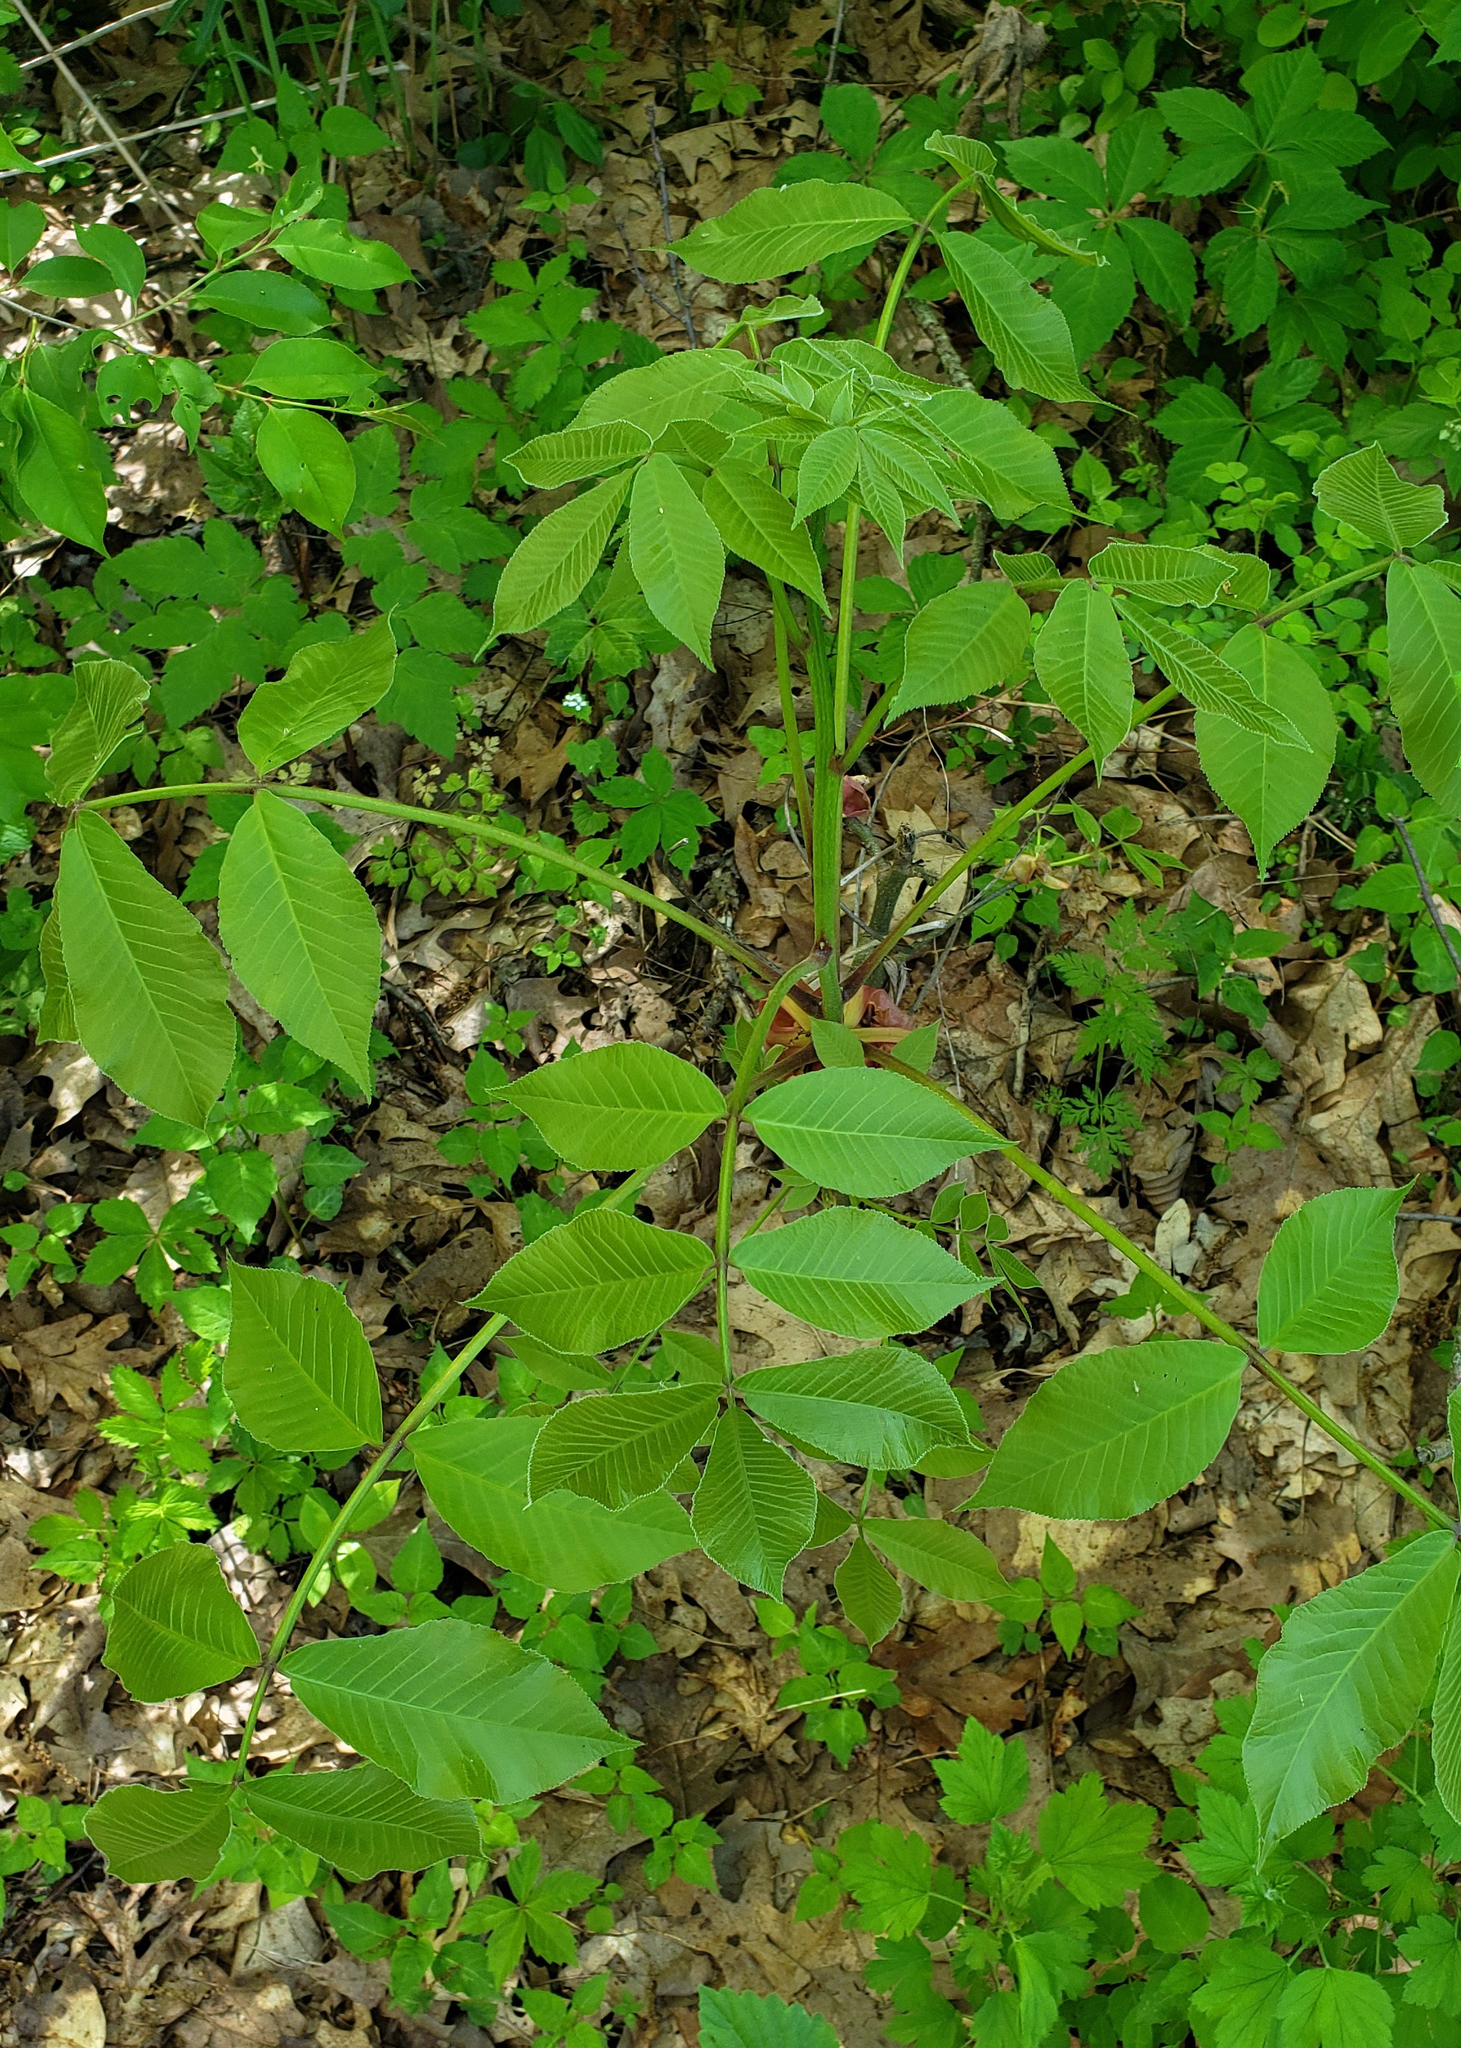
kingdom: Plantae
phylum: Tracheophyta
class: Magnoliopsida
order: Fagales
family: Juglandaceae
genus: Carya
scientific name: Carya ovata
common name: Shagbark hickory
